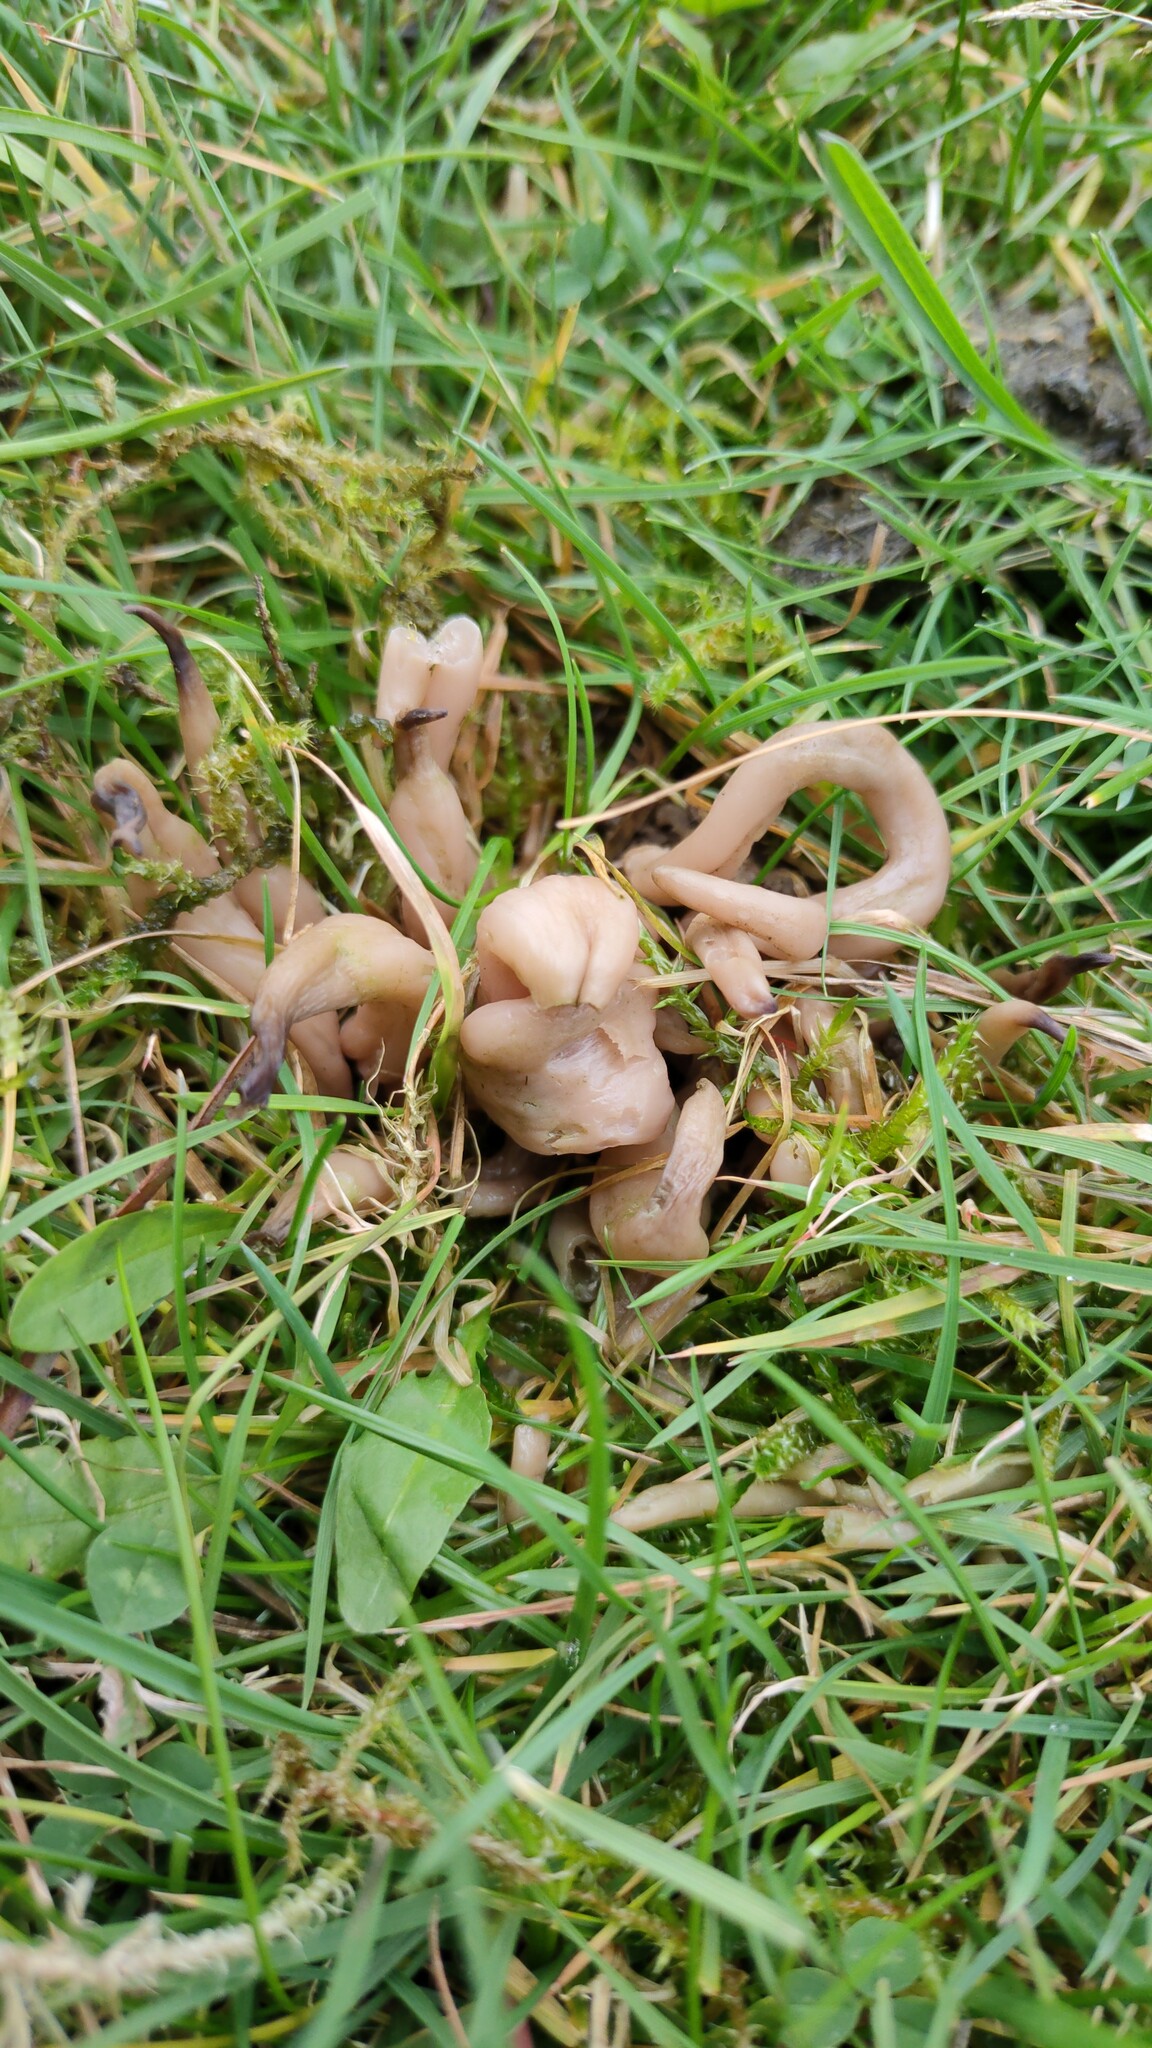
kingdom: Fungi
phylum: Basidiomycota
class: Agaricomycetes
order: Agaricales
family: Clavariaceae
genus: Clavaria
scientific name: Clavaria fumosa
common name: Smoky spindles
